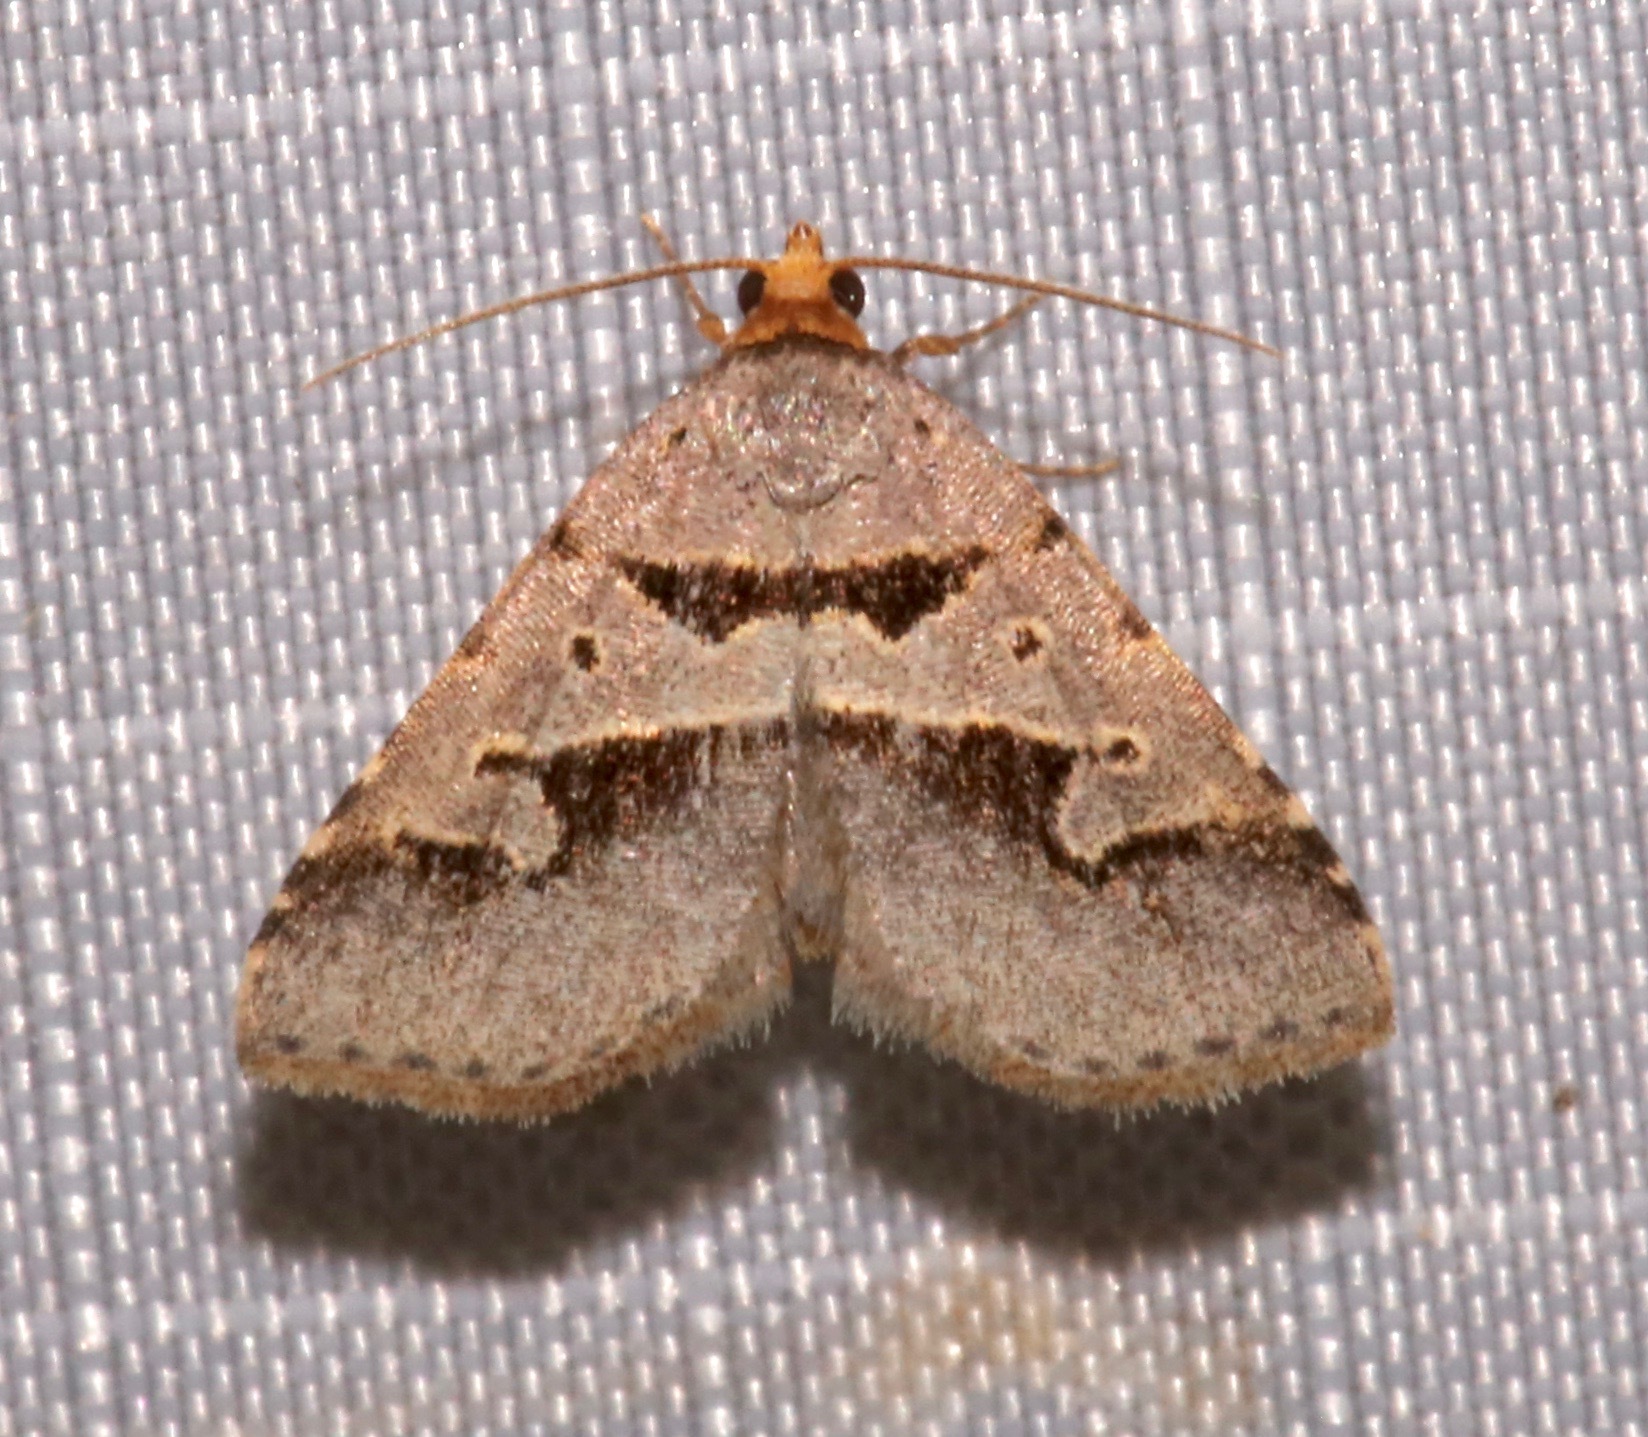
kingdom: Animalia
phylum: Arthropoda
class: Insecta
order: Lepidoptera
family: Erebidae
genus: Baniana
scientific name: Baniana minor
